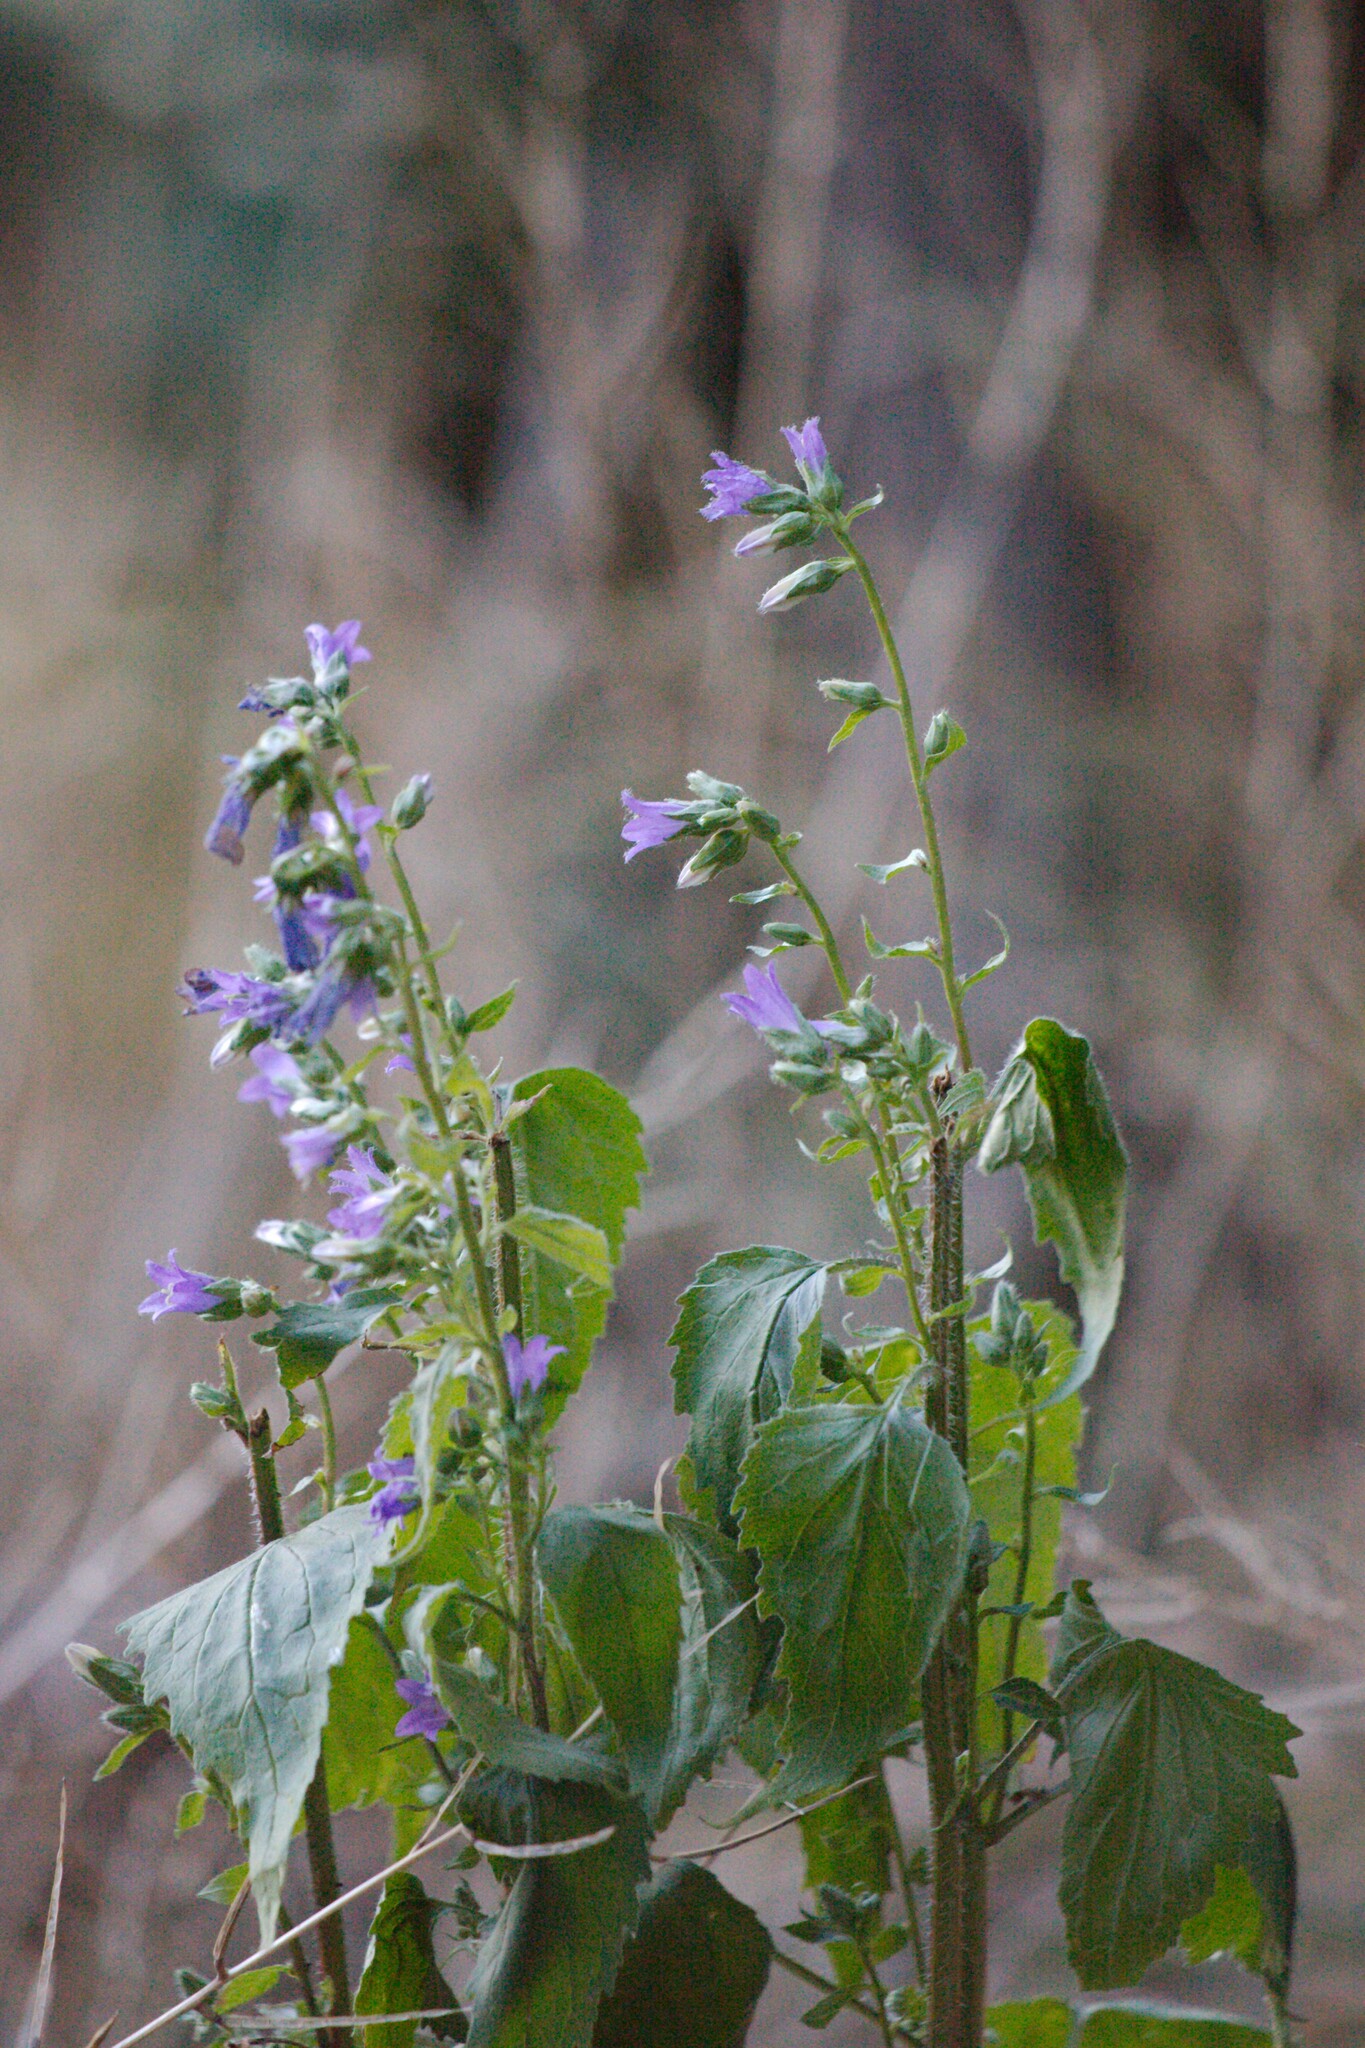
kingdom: Plantae
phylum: Tracheophyta
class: Magnoliopsida
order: Asterales
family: Campanulaceae
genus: Campanula
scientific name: Campanula trachelium
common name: Nettle-leaved bellflower
